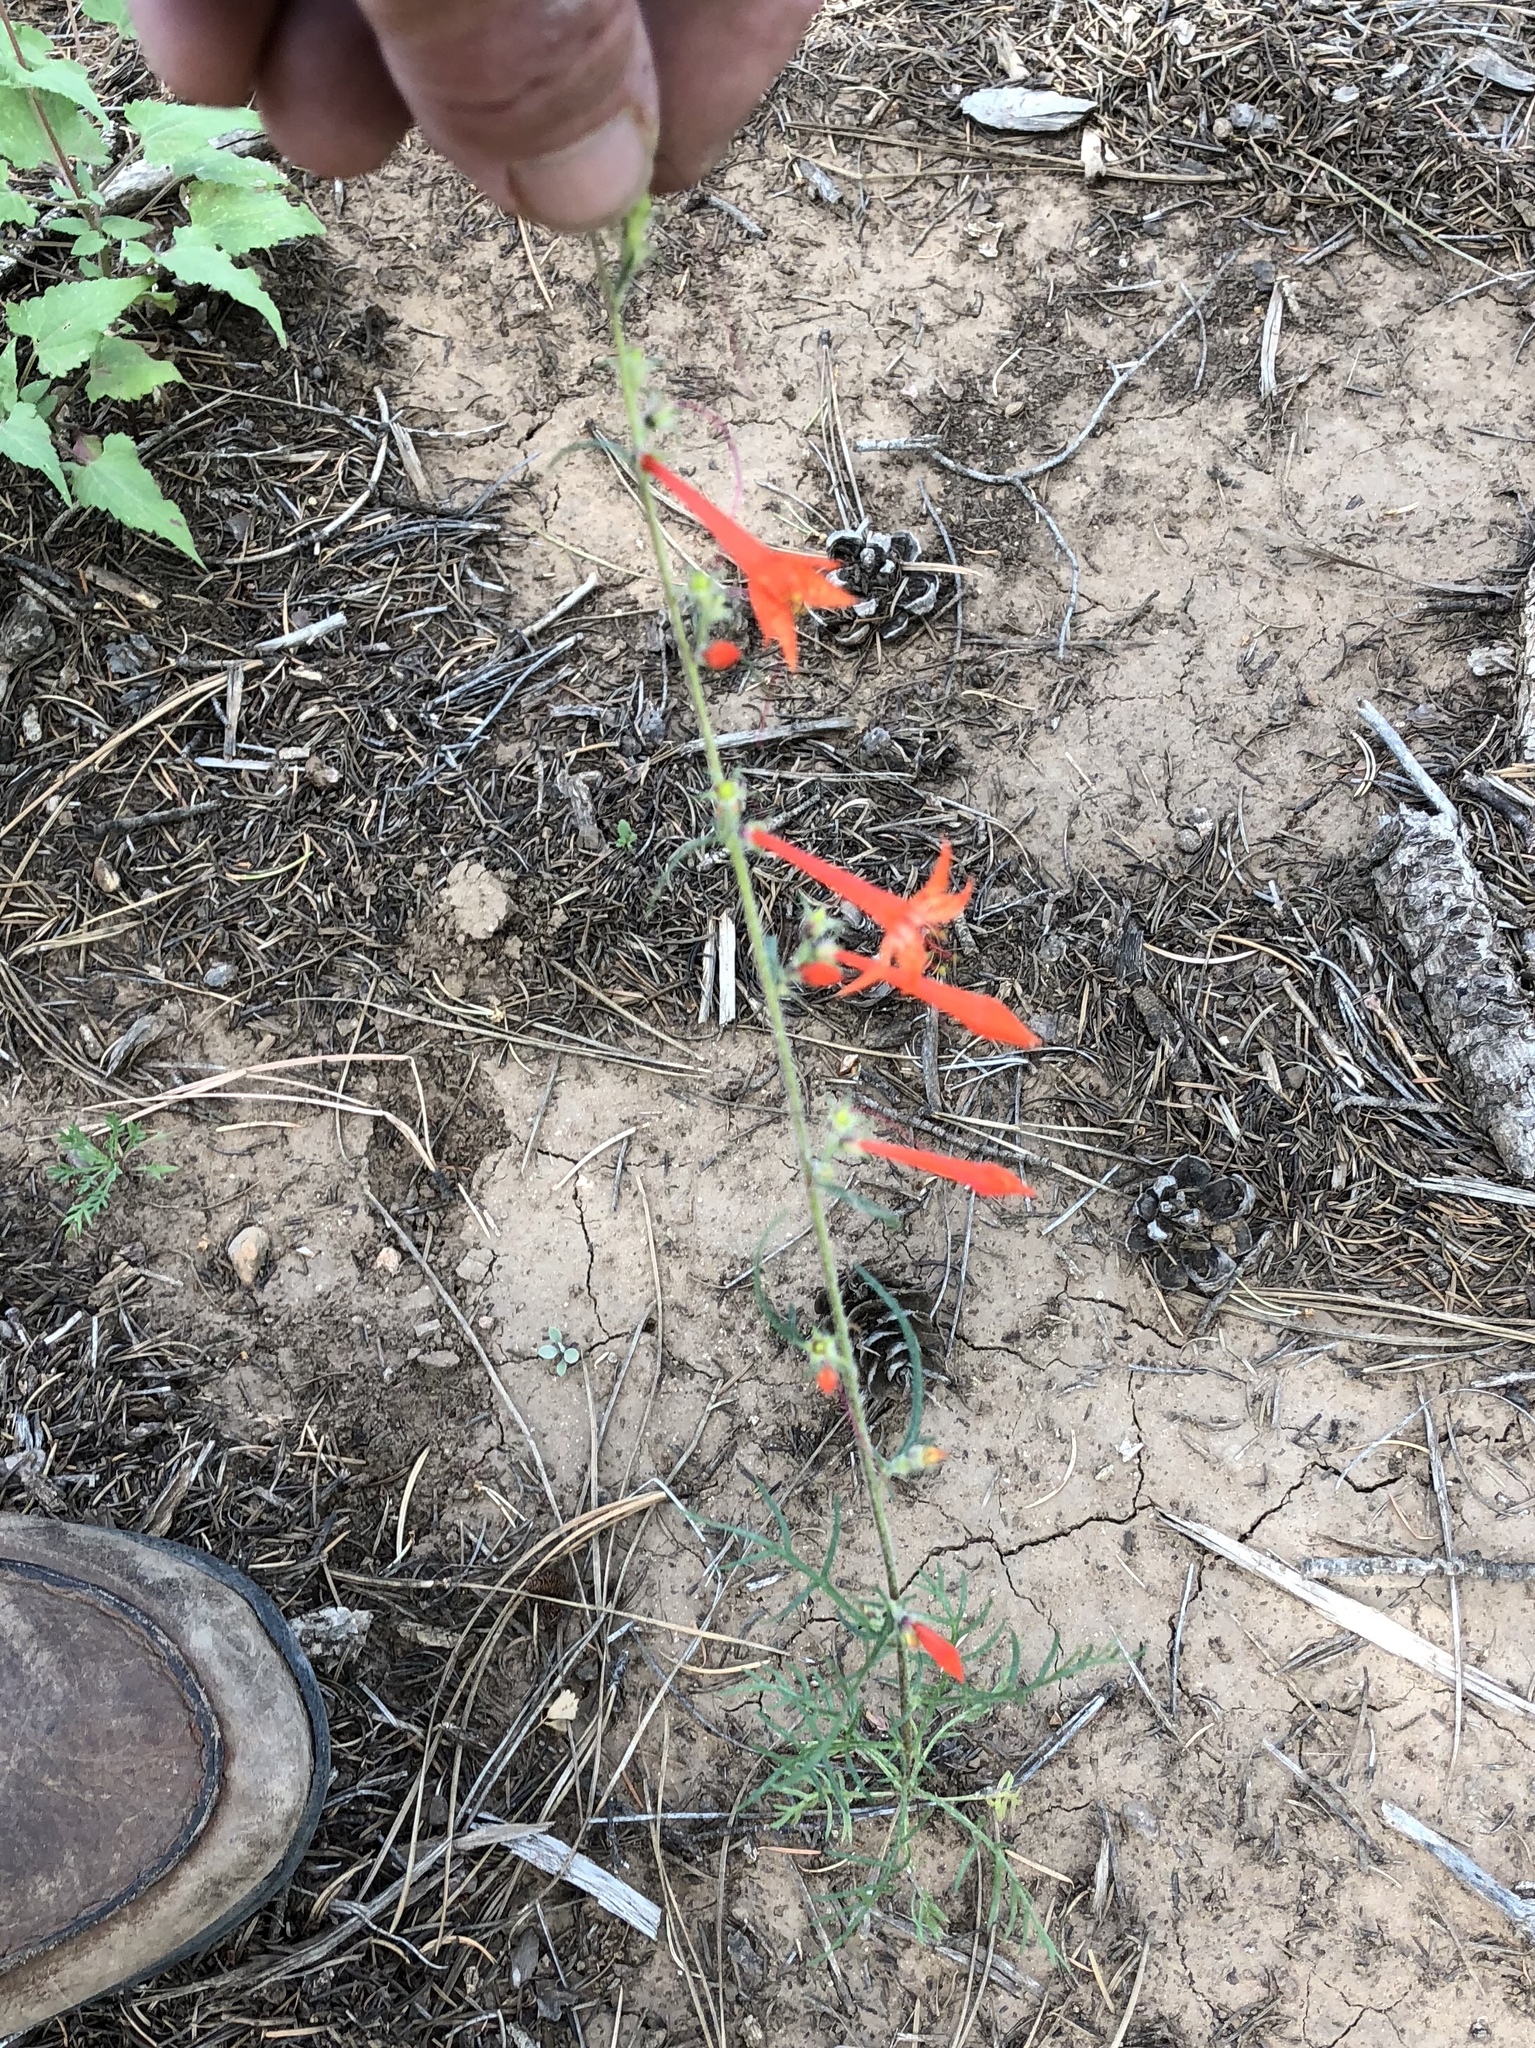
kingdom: Plantae
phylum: Tracheophyta
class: Magnoliopsida
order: Ericales
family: Polemoniaceae
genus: Ipomopsis
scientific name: Ipomopsis aggregata
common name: Scarlet gilia
